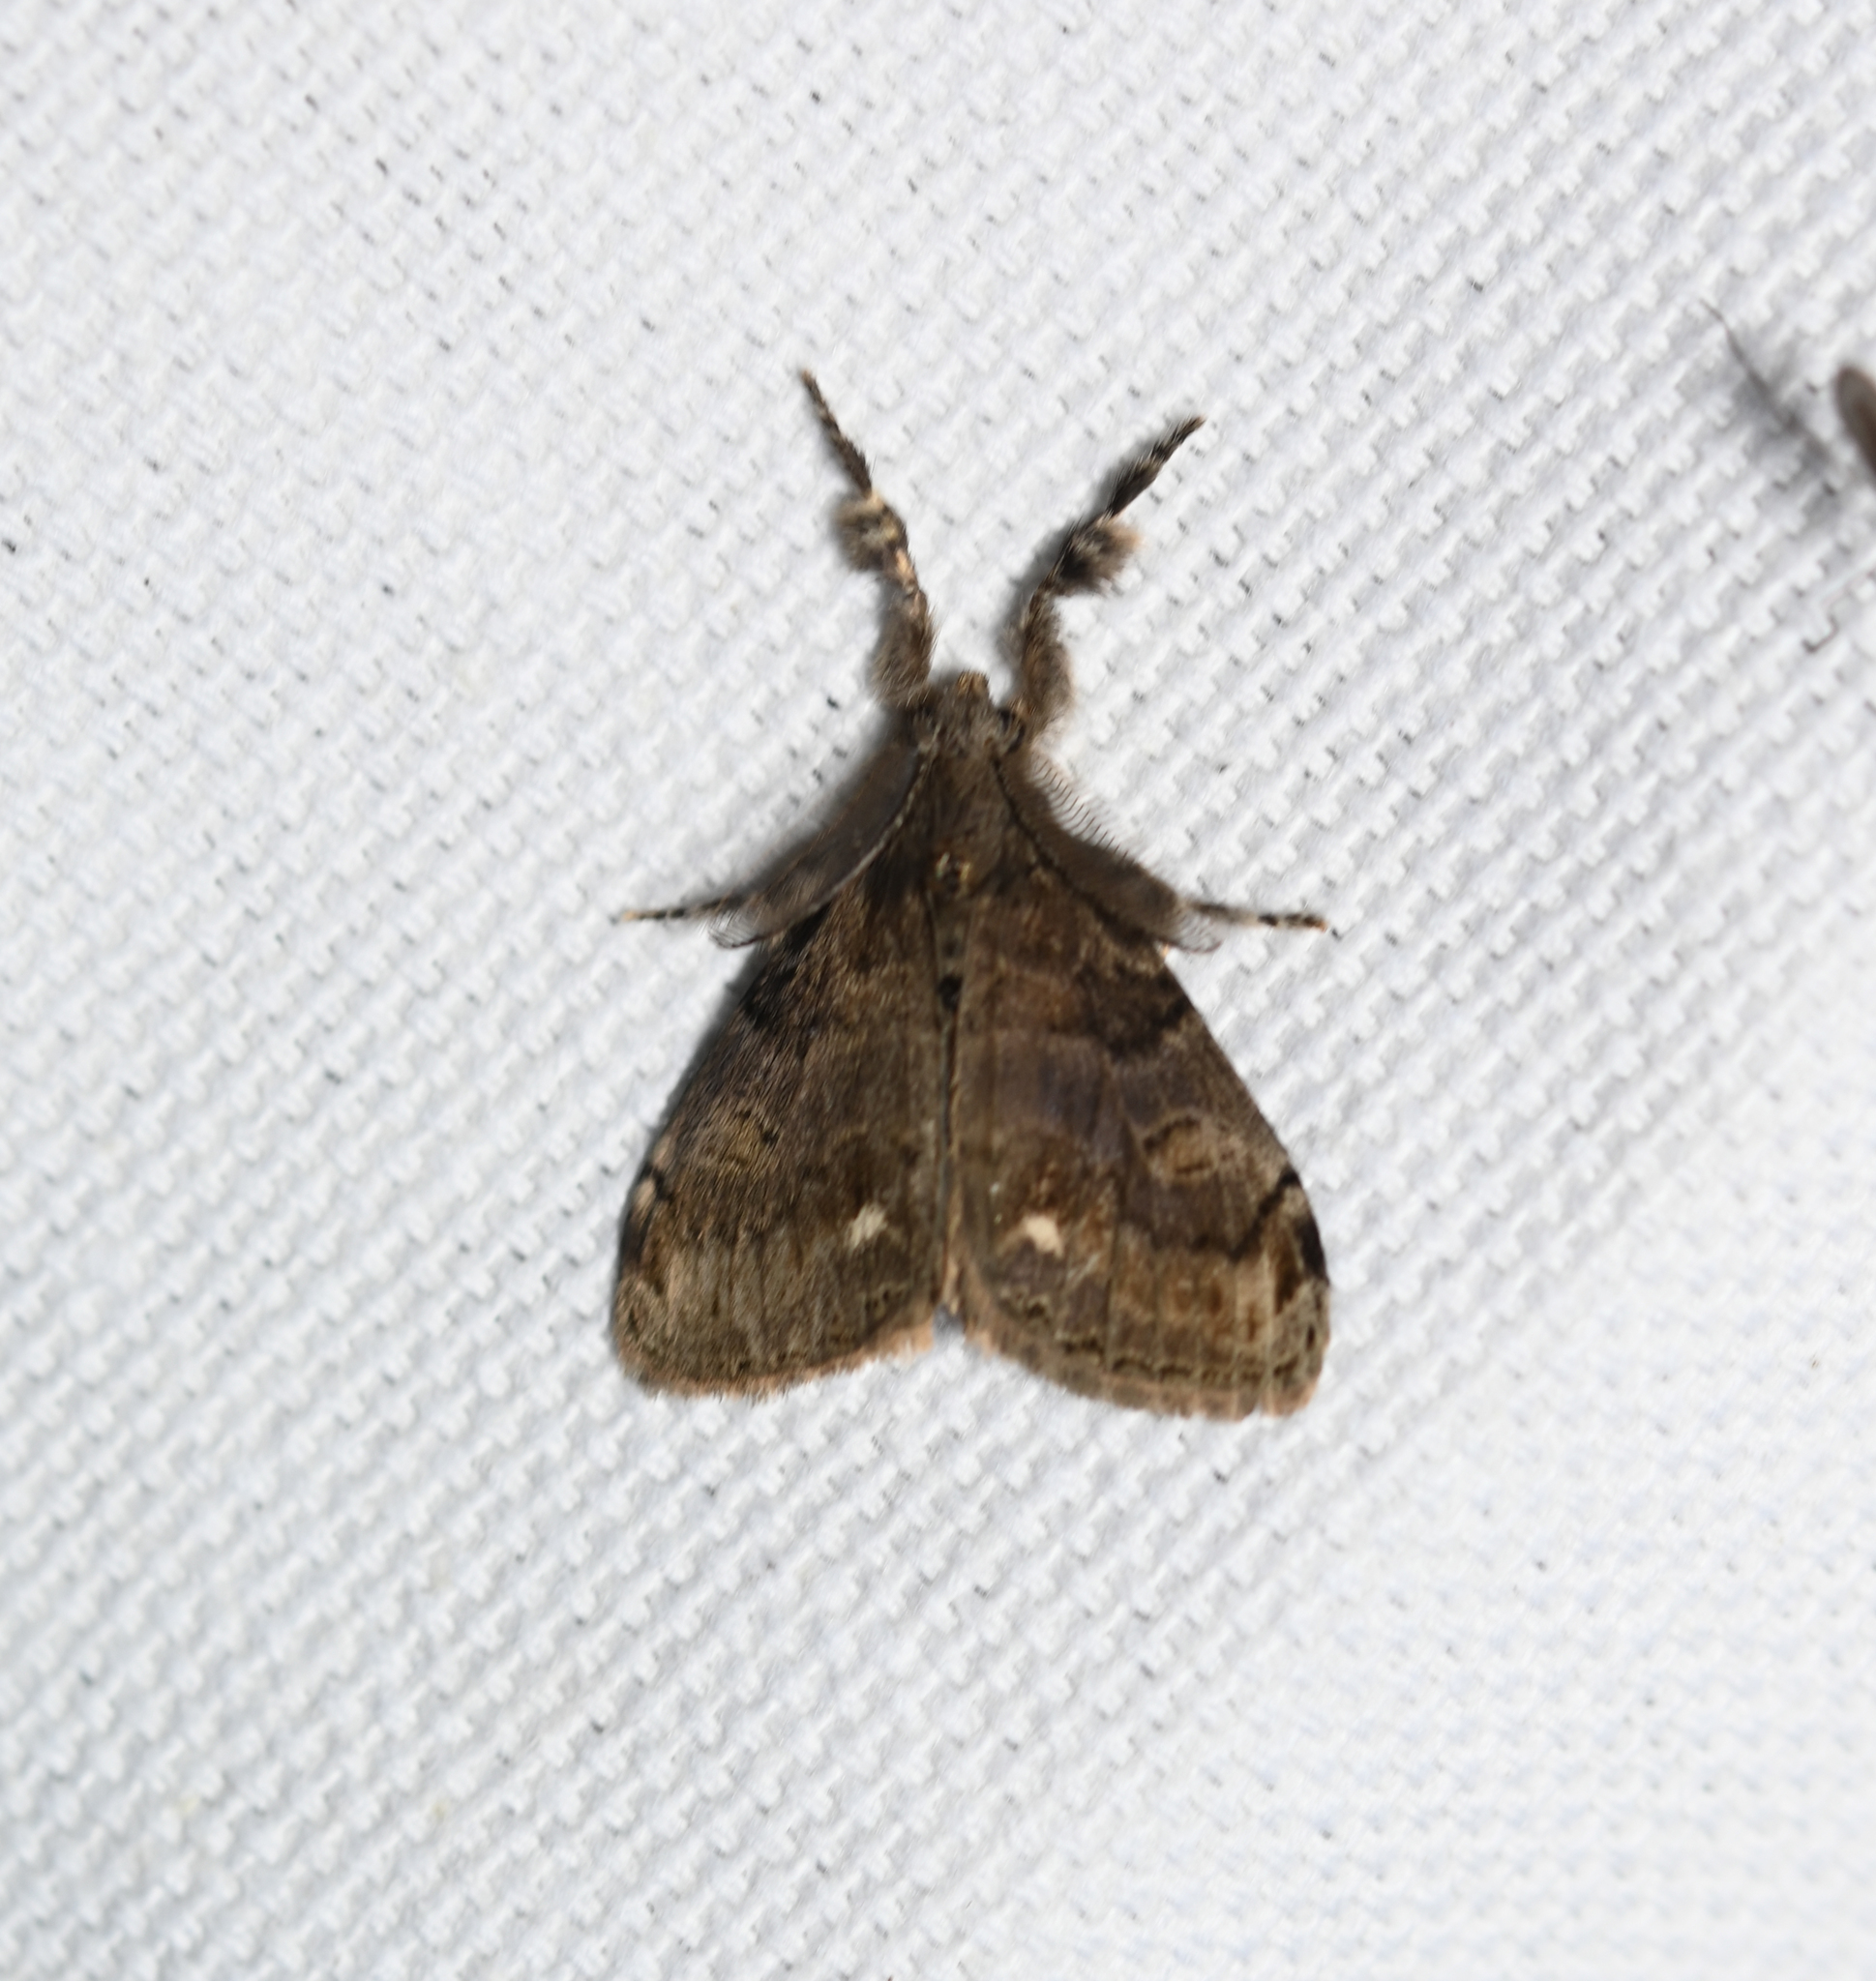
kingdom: Animalia
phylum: Arthropoda
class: Insecta
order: Lepidoptera
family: Erebidae
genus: Orgyia
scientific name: Orgyia leucostigma
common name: White-marked tussock moth
